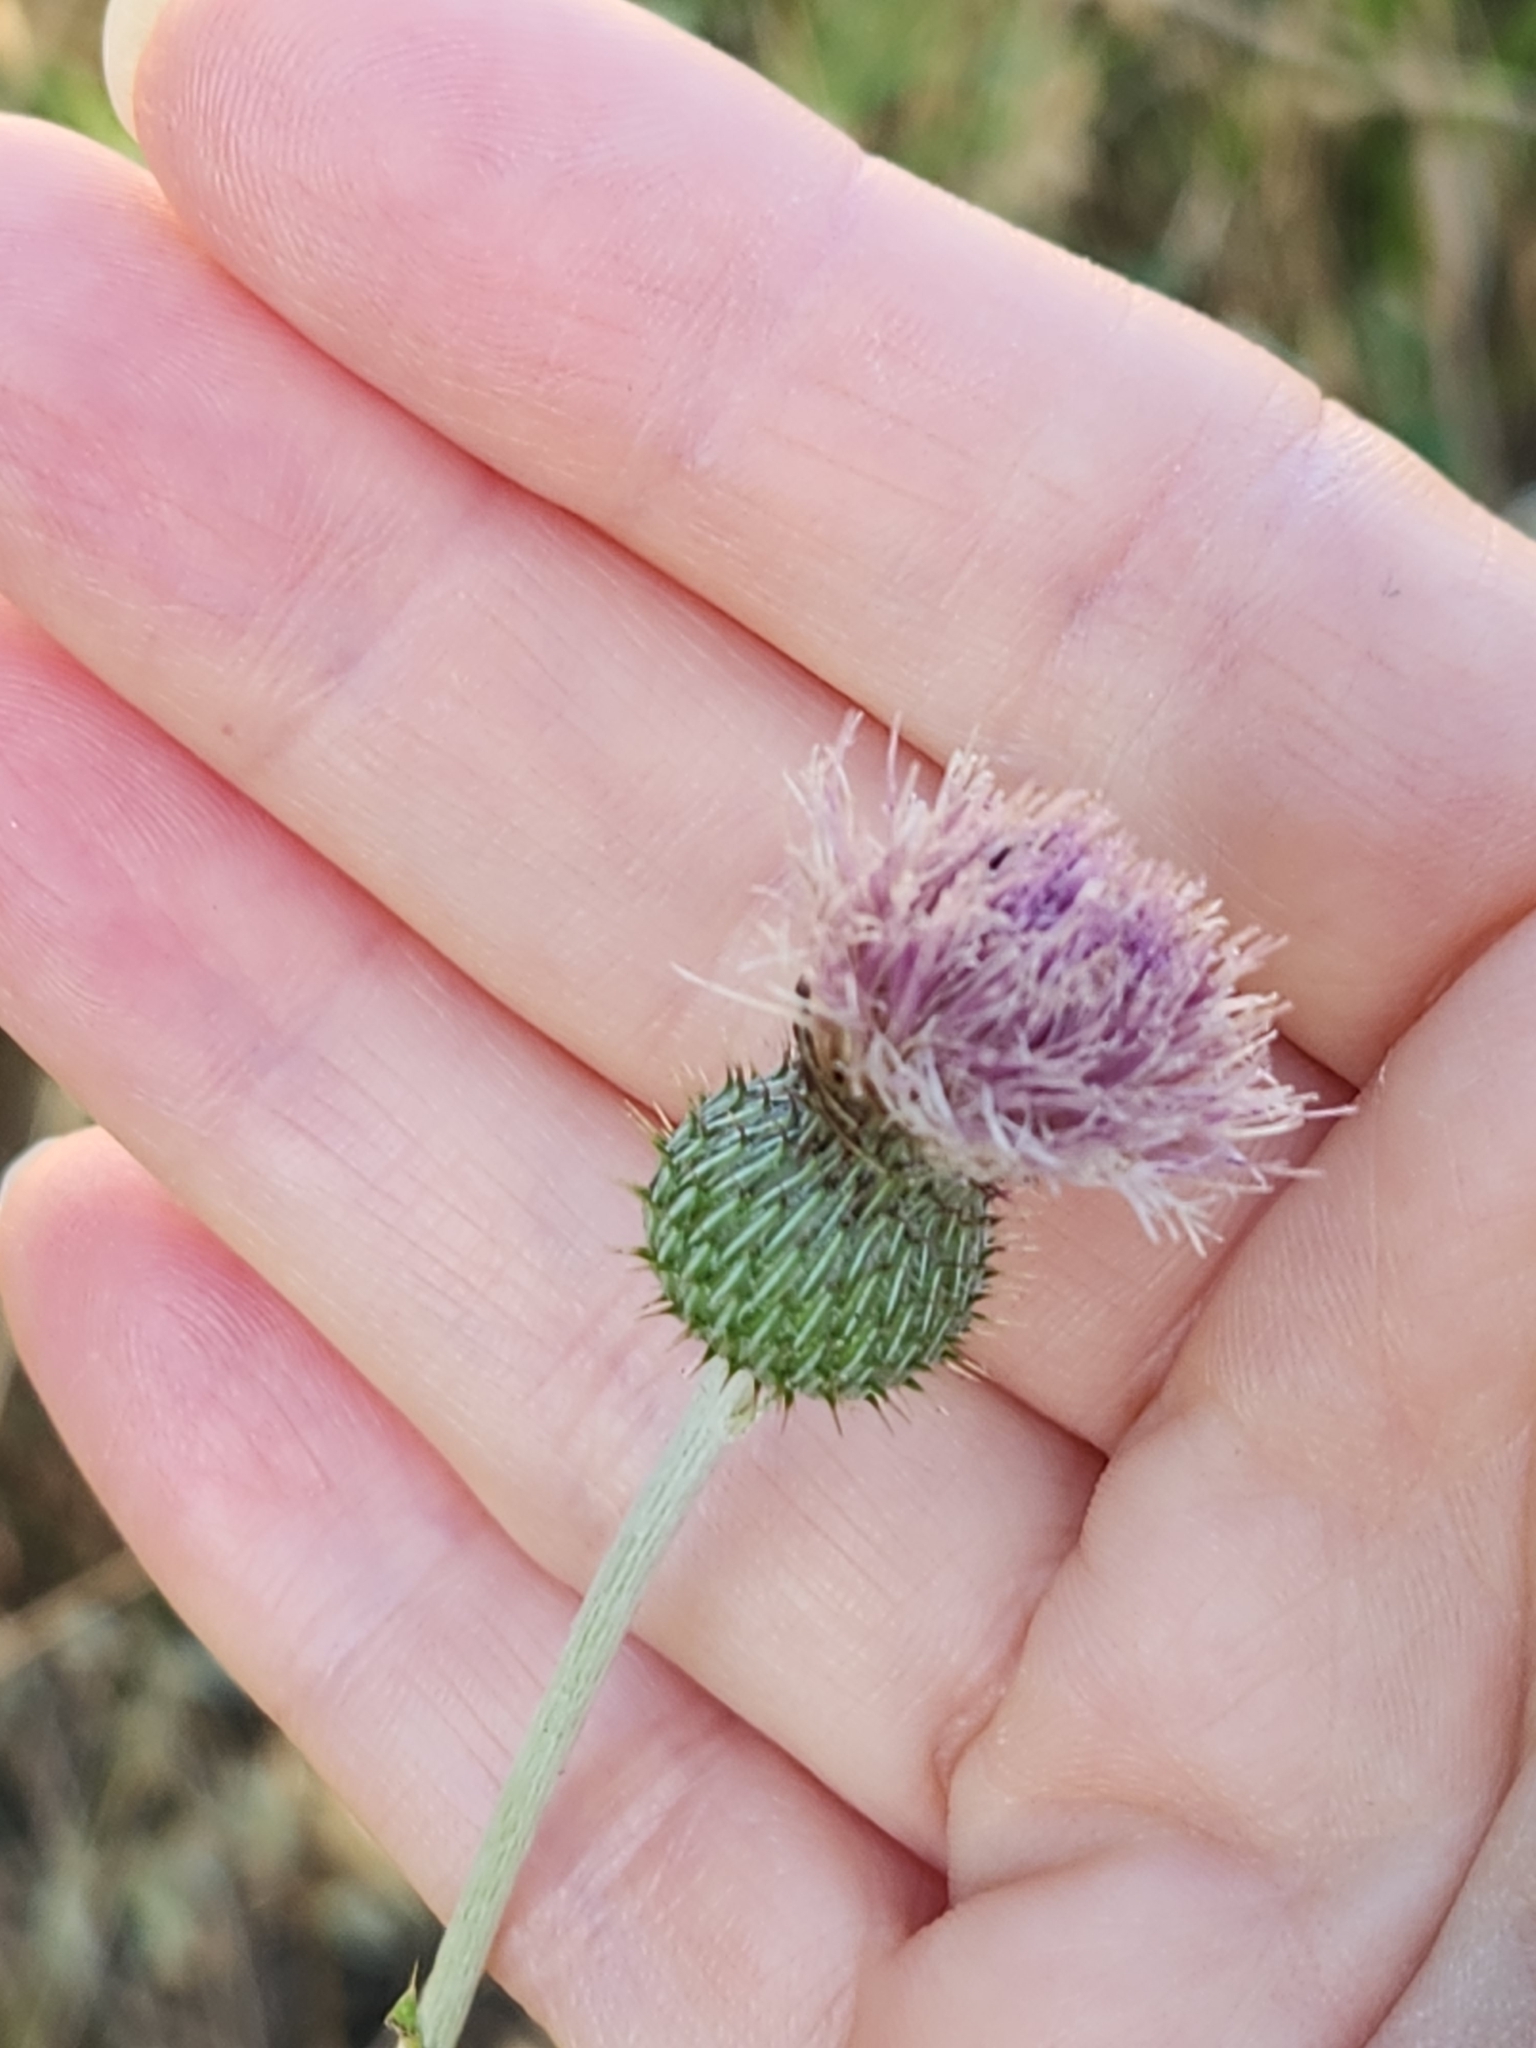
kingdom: Plantae
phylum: Tracheophyta
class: Magnoliopsida
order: Asterales
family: Asteraceae
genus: Cirsium
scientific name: Cirsium texanum
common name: Texas purple thistle
